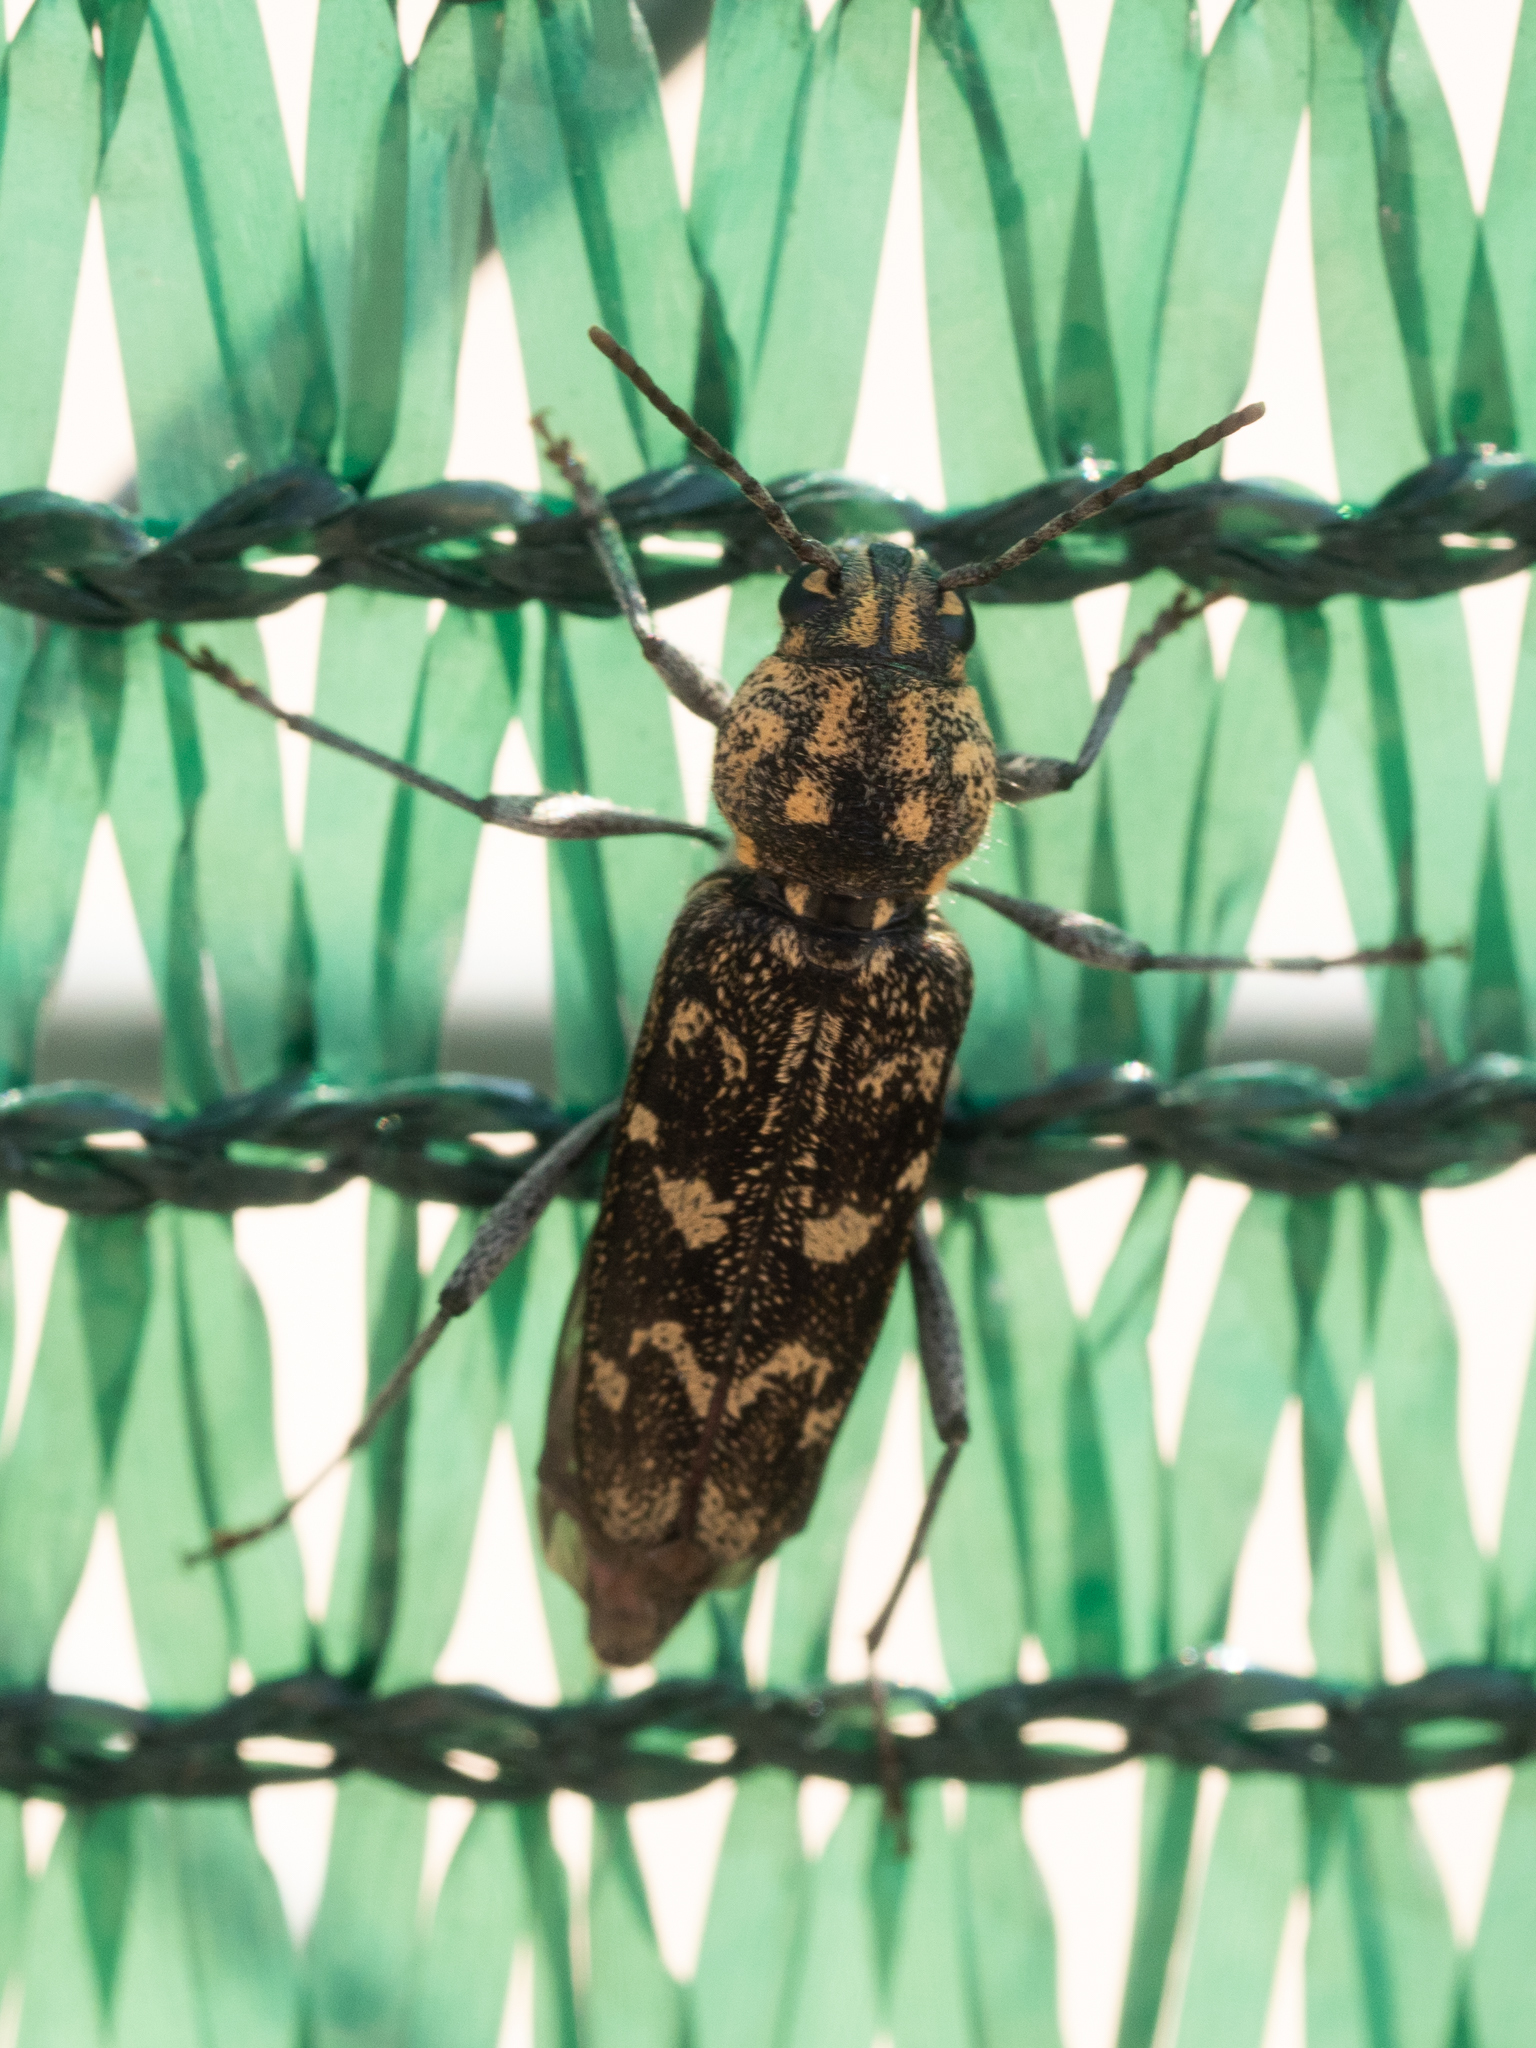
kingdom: Animalia
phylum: Arthropoda
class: Insecta
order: Coleoptera
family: Cerambycidae
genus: Xylotrechus
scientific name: Xylotrechus rusticus
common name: Grey tiger long-horned beetle
